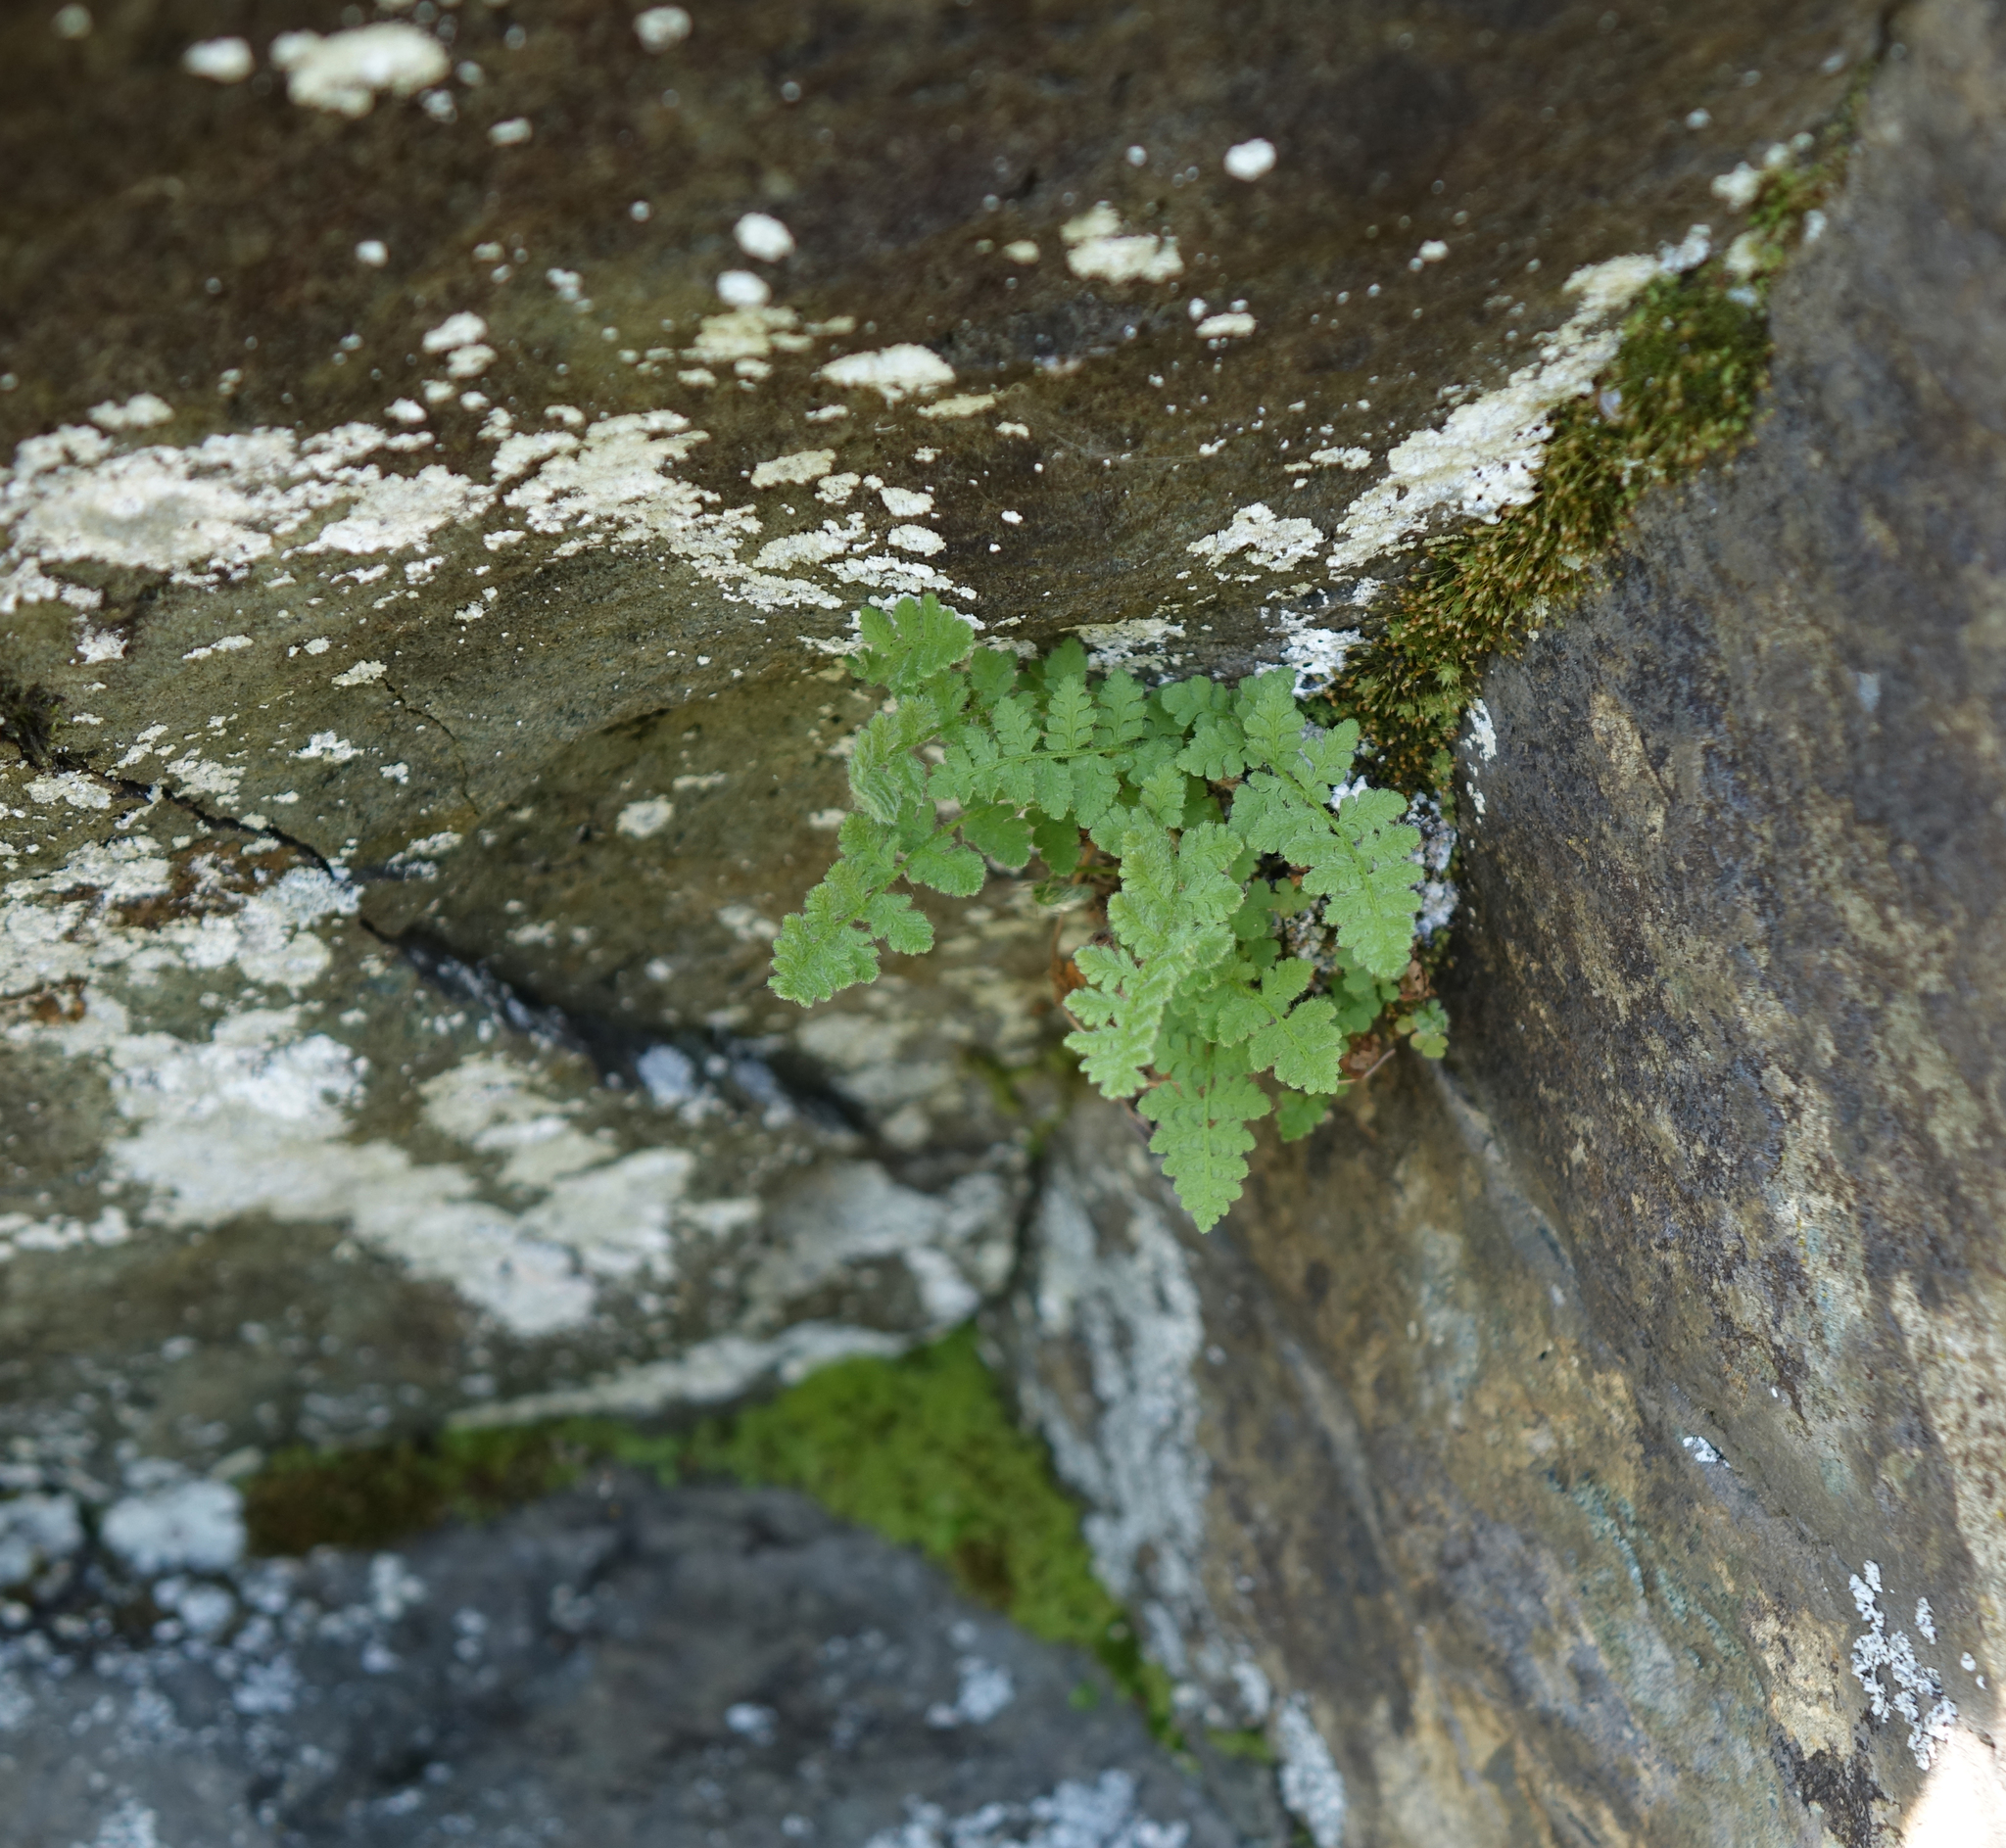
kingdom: Plantae
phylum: Tracheophyta
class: Polypodiopsida
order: Polypodiales
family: Woodsiaceae
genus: Woodsia
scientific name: Woodsia ilvensis
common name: Fragrant woodsia
